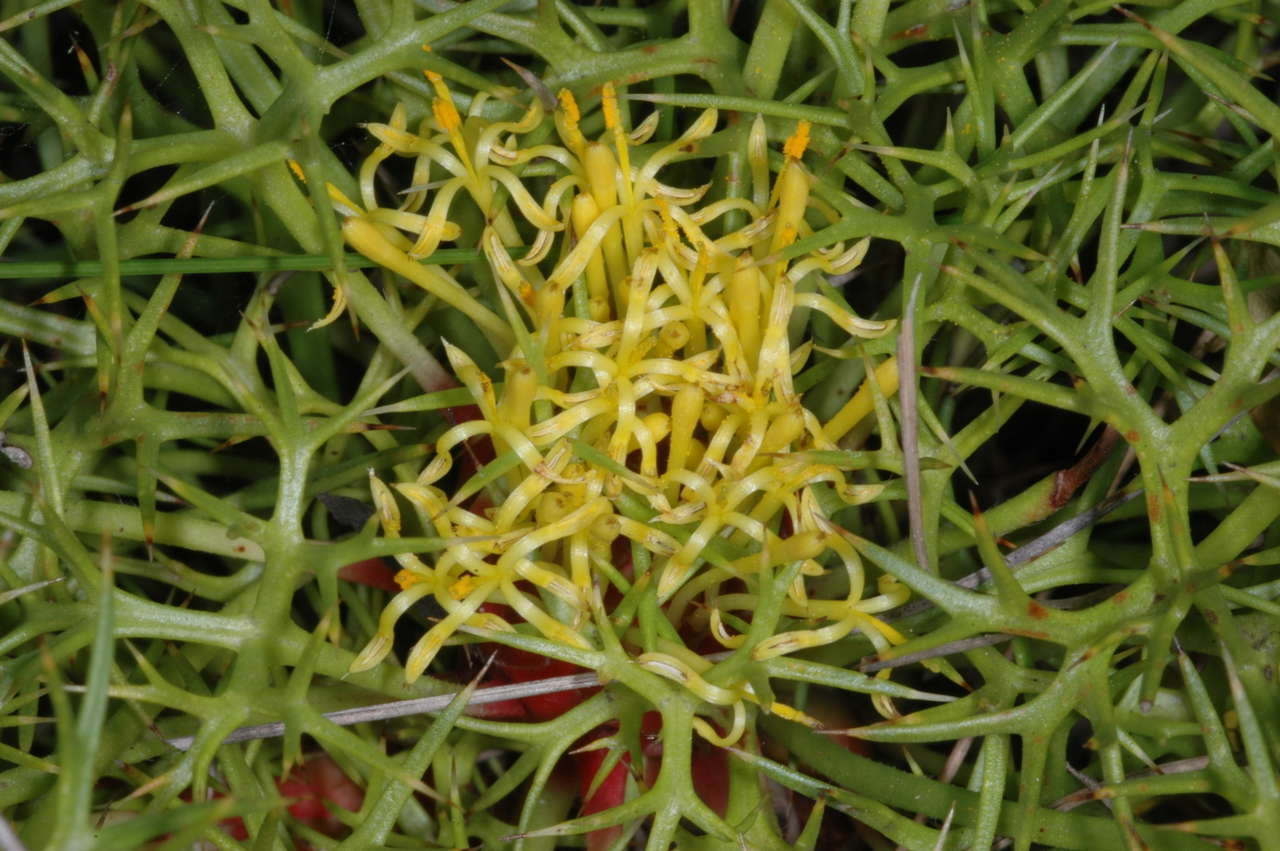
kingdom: Plantae
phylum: Tracheophyta
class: Magnoliopsida
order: Proteales
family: Proteaceae
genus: Isopogon
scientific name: Isopogon ceratophyllus
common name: Horny cone-bush
